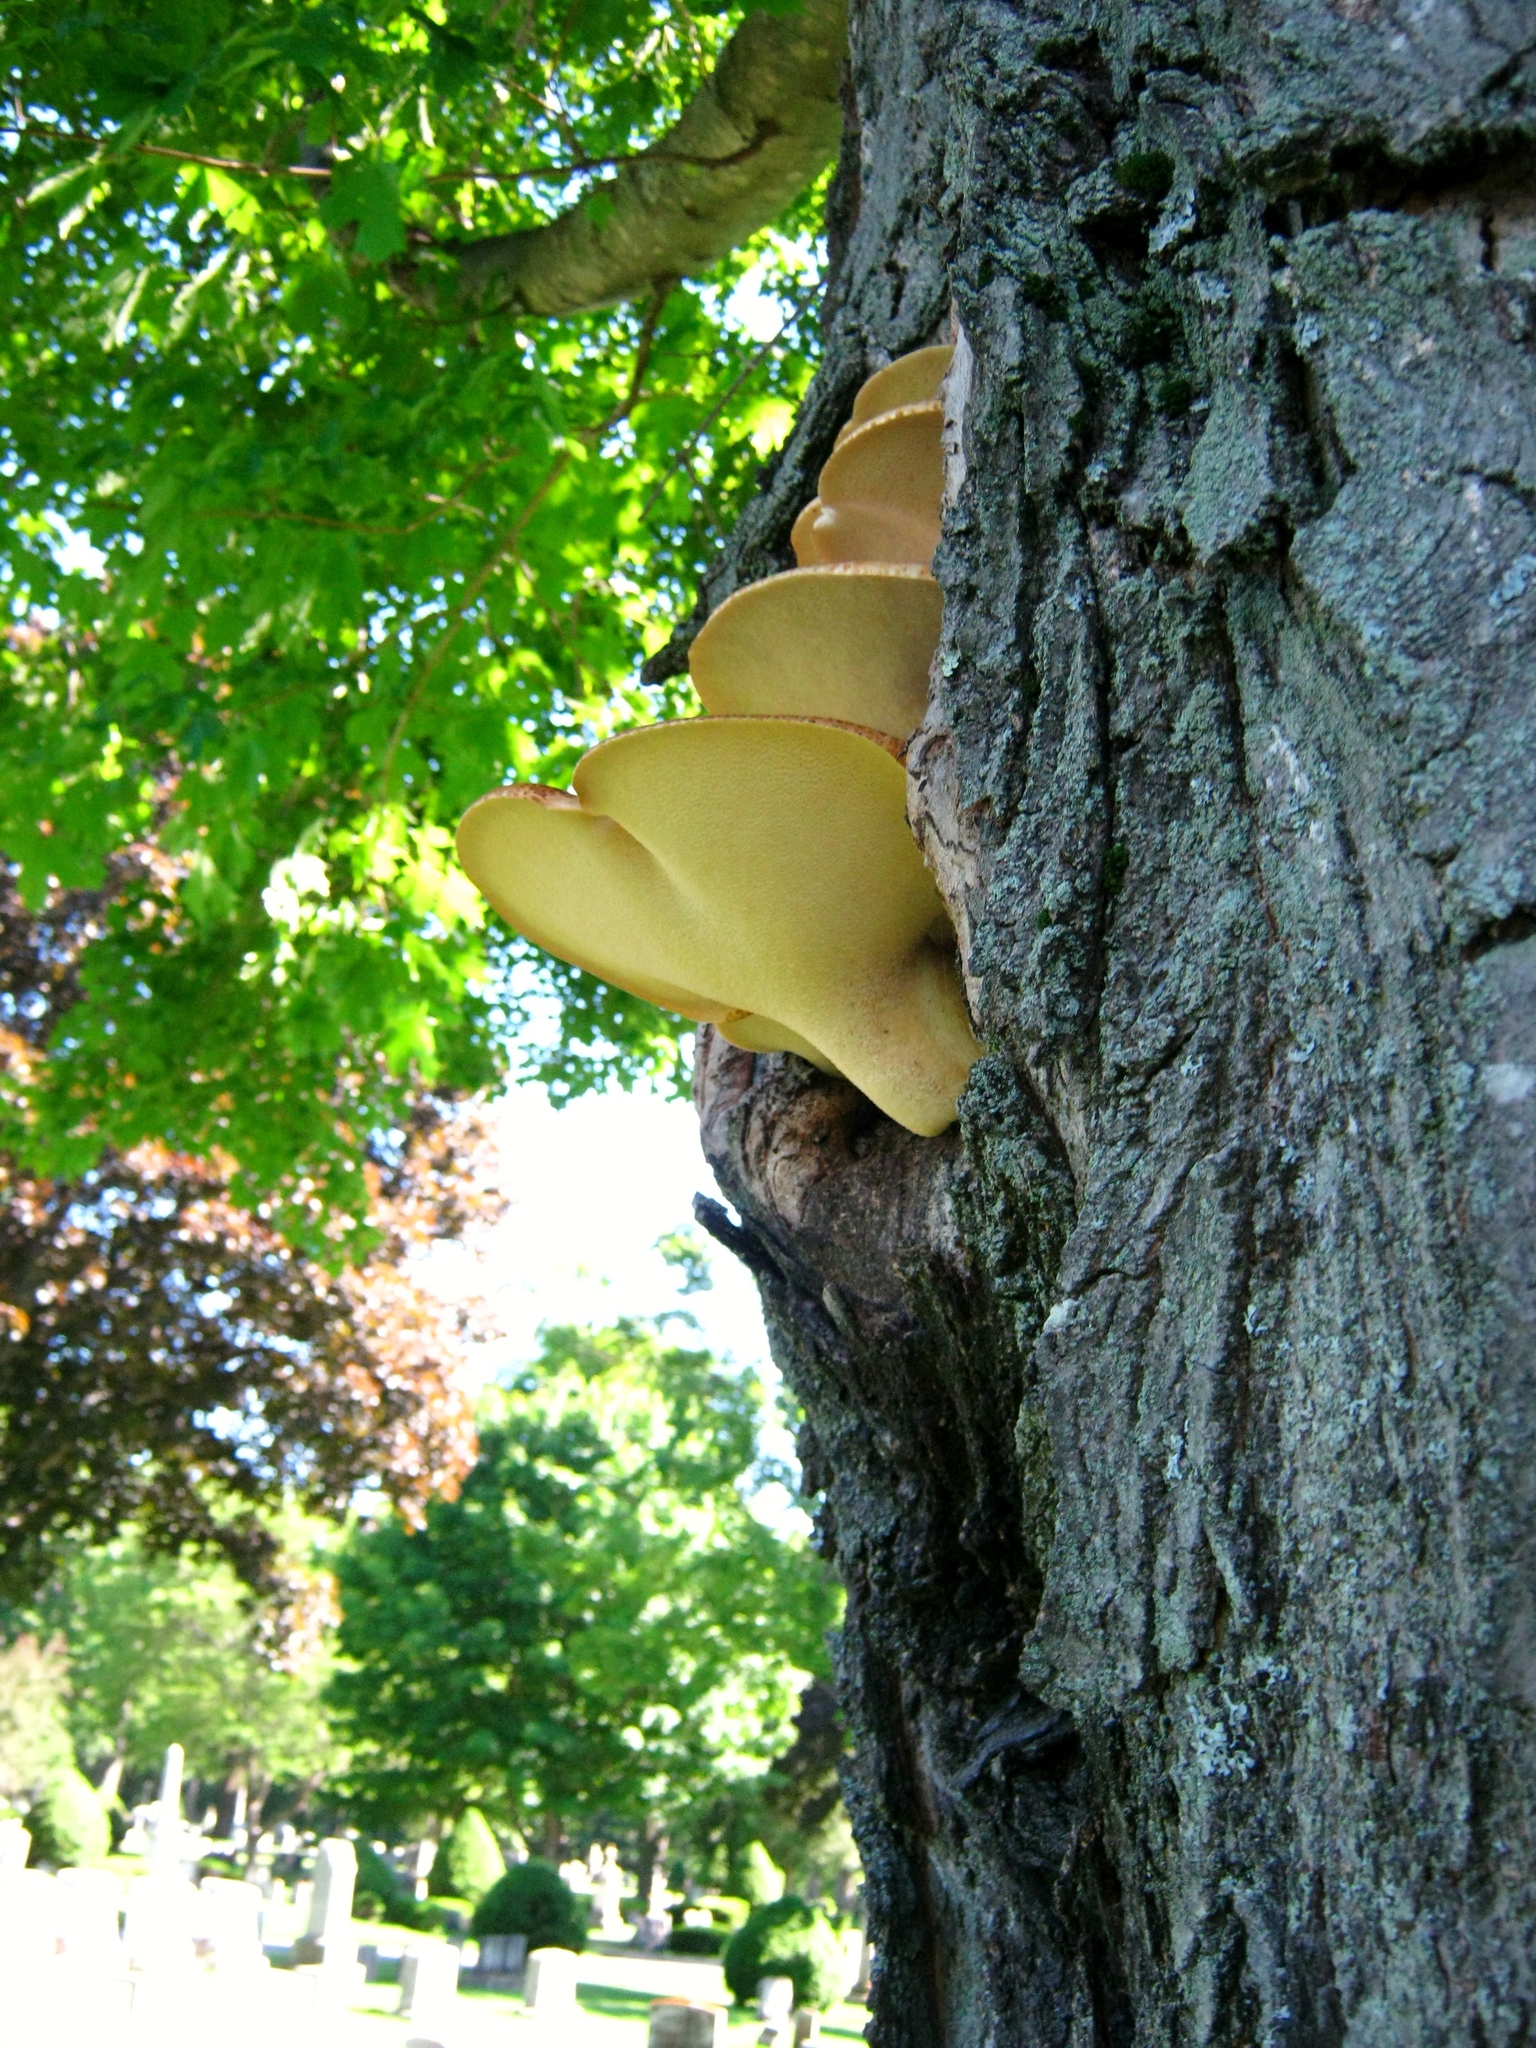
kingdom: Fungi
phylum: Basidiomycota
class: Agaricomycetes
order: Polyporales
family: Polyporaceae
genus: Cerioporus
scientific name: Cerioporus squamosus
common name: Dryad's saddle
